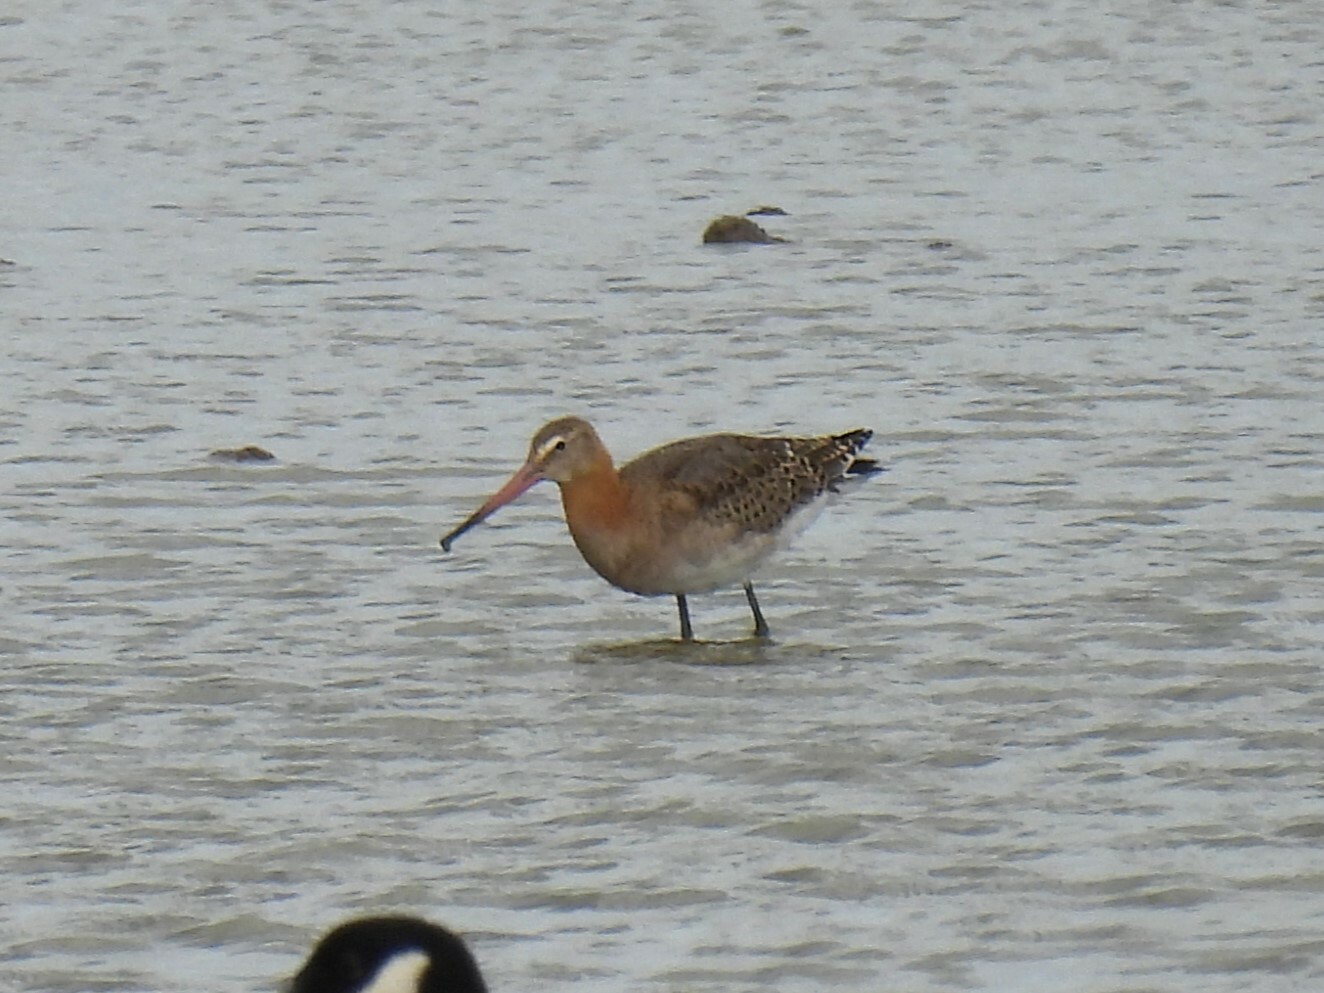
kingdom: Animalia
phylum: Chordata
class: Aves
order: Charadriiformes
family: Scolopacidae
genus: Limosa
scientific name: Limosa limosa
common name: Black-tailed godwit
